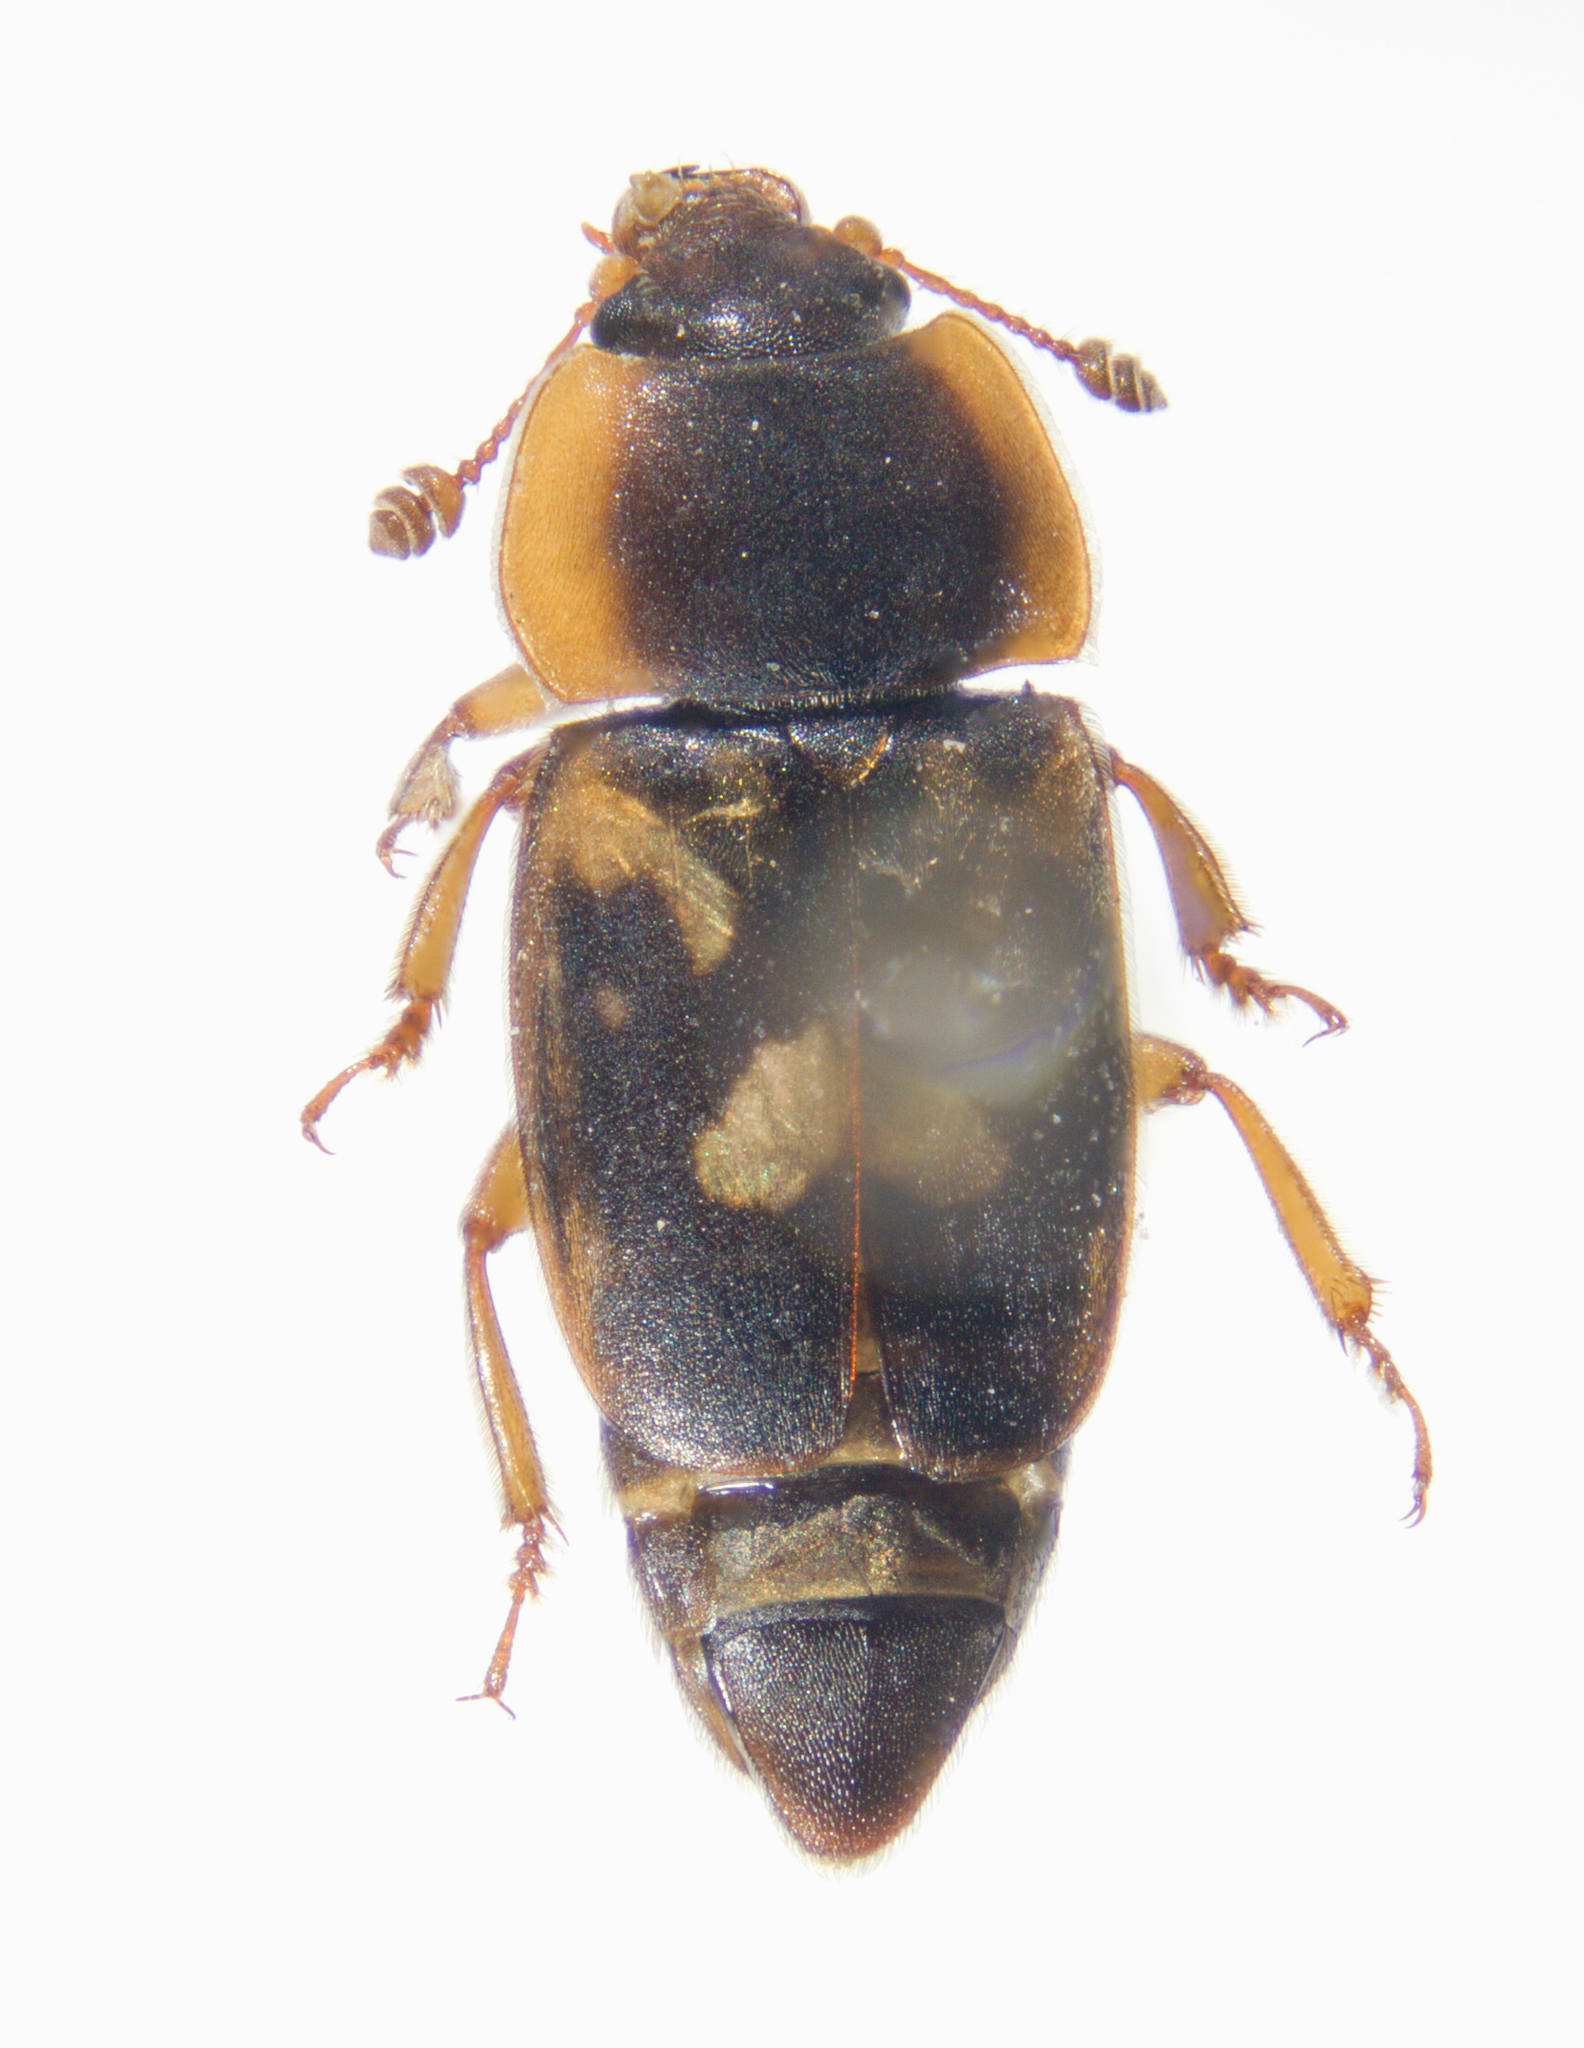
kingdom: Animalia
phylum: Arthropoda
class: Insecta
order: Coleoptera
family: Nitidulidae
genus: Nitidula
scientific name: Nitidula flavomaculata
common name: Sap beetle
